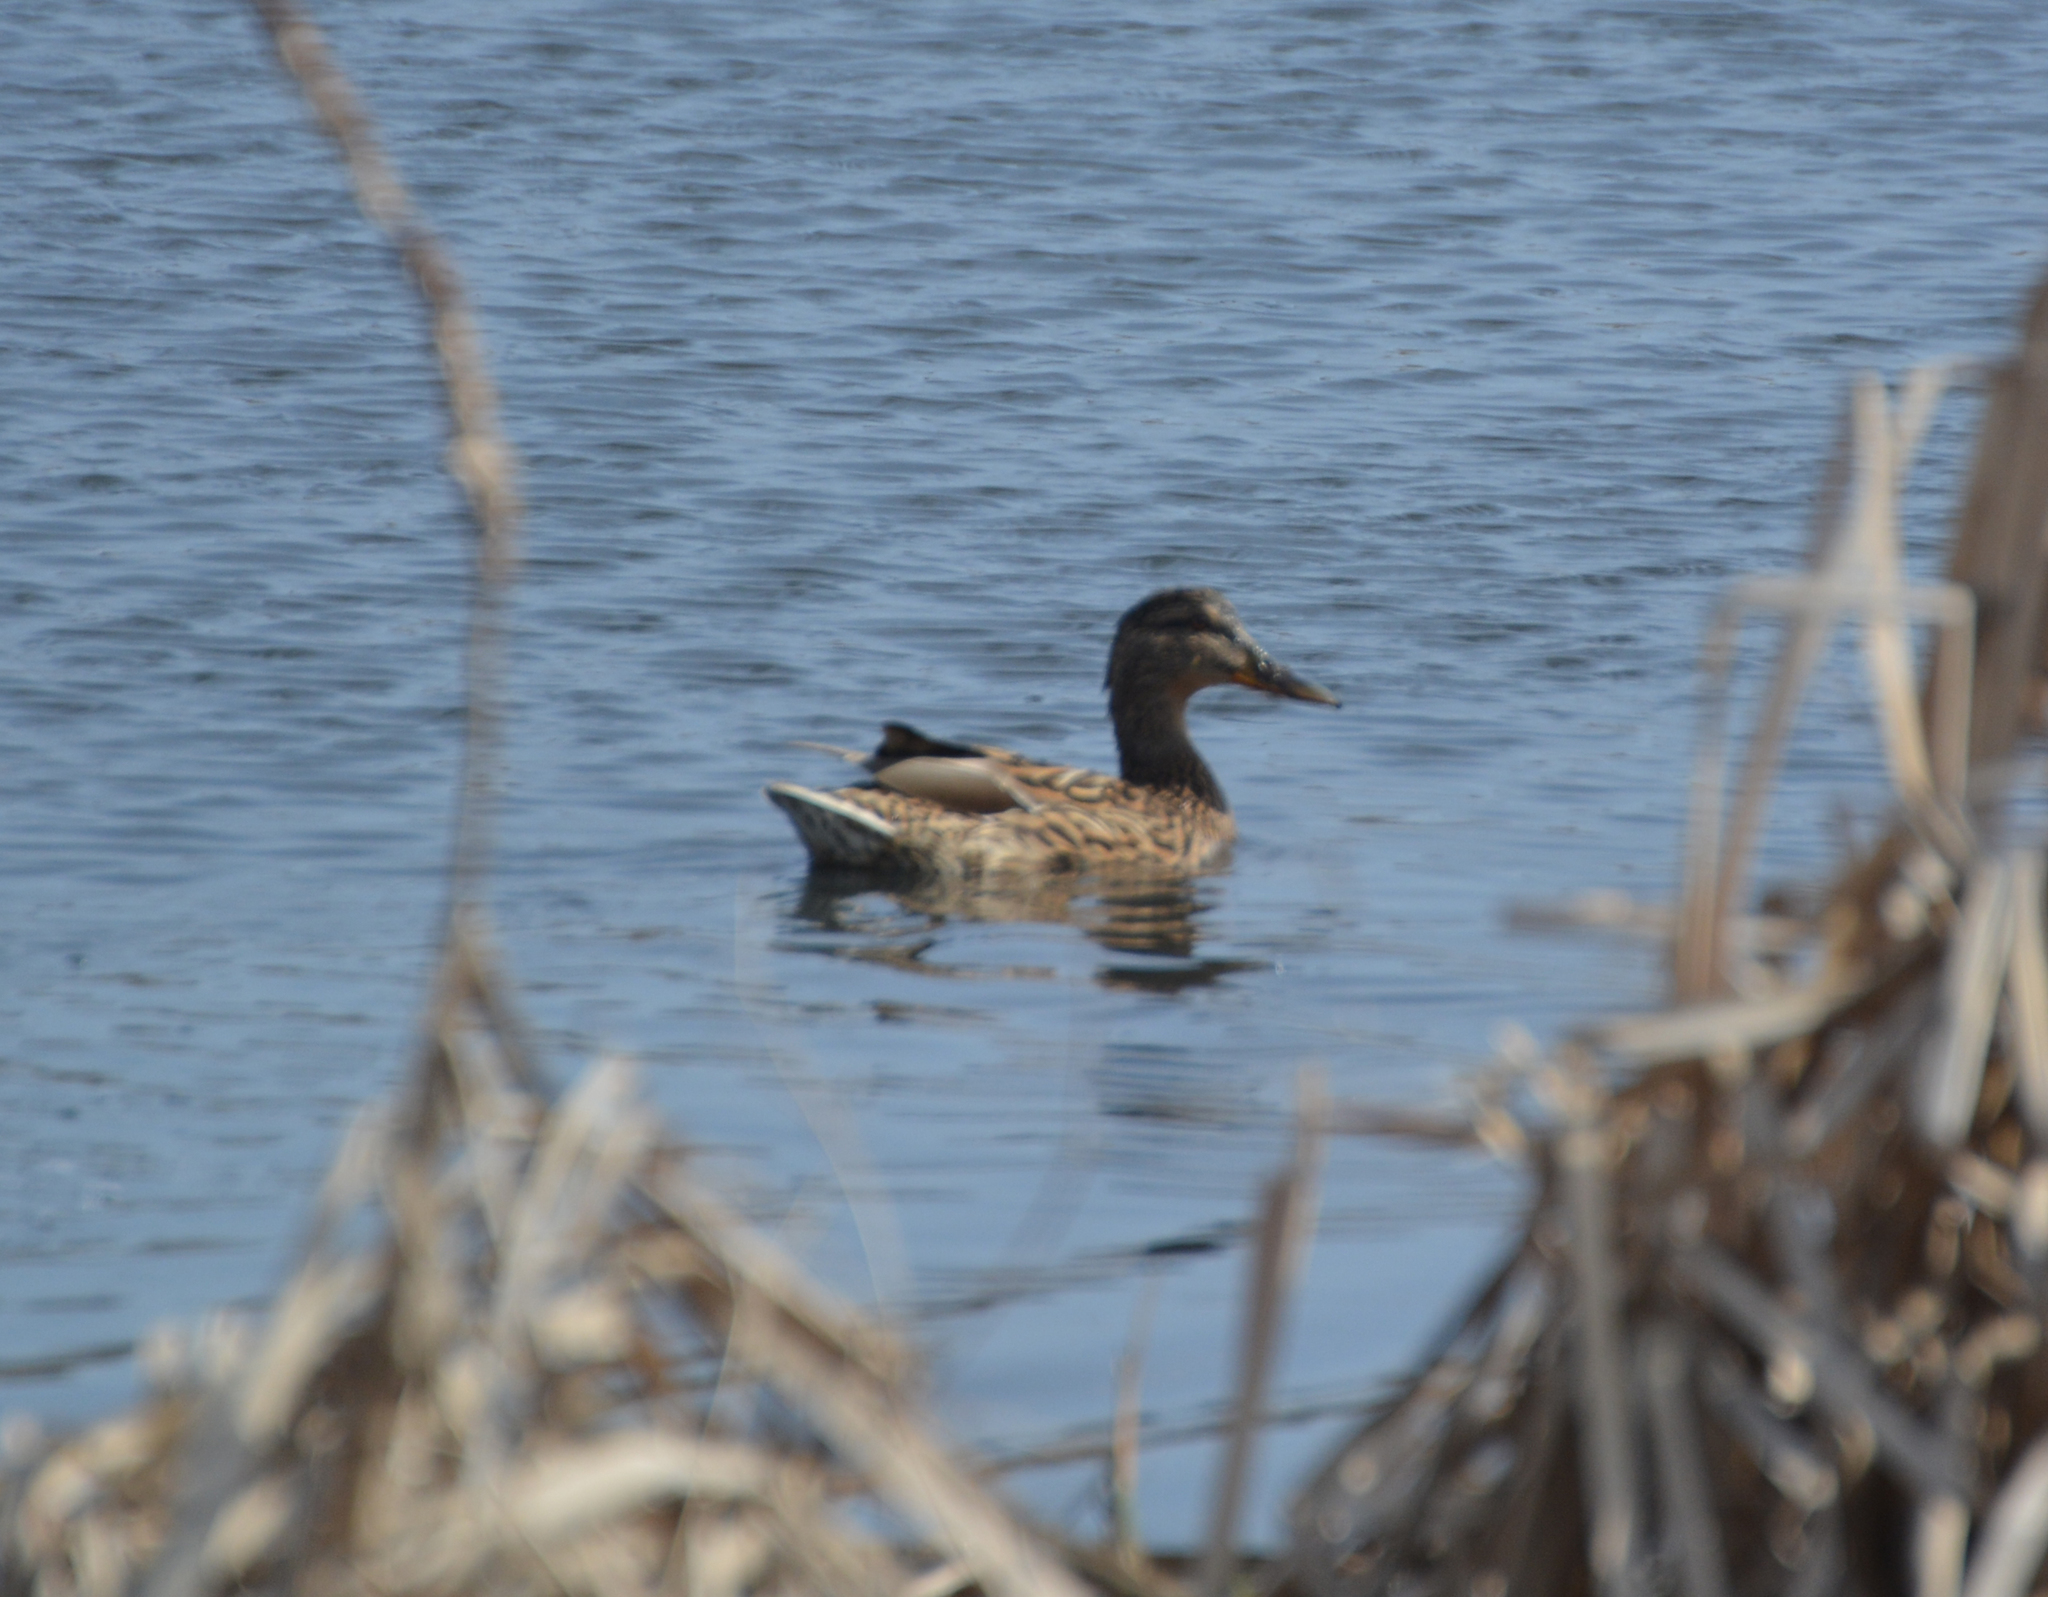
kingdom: Animalia
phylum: Chordata
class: Aves
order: Anseriformes
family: Anatidae
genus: Anas
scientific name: Anas platyrhynchos
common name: Mallard
